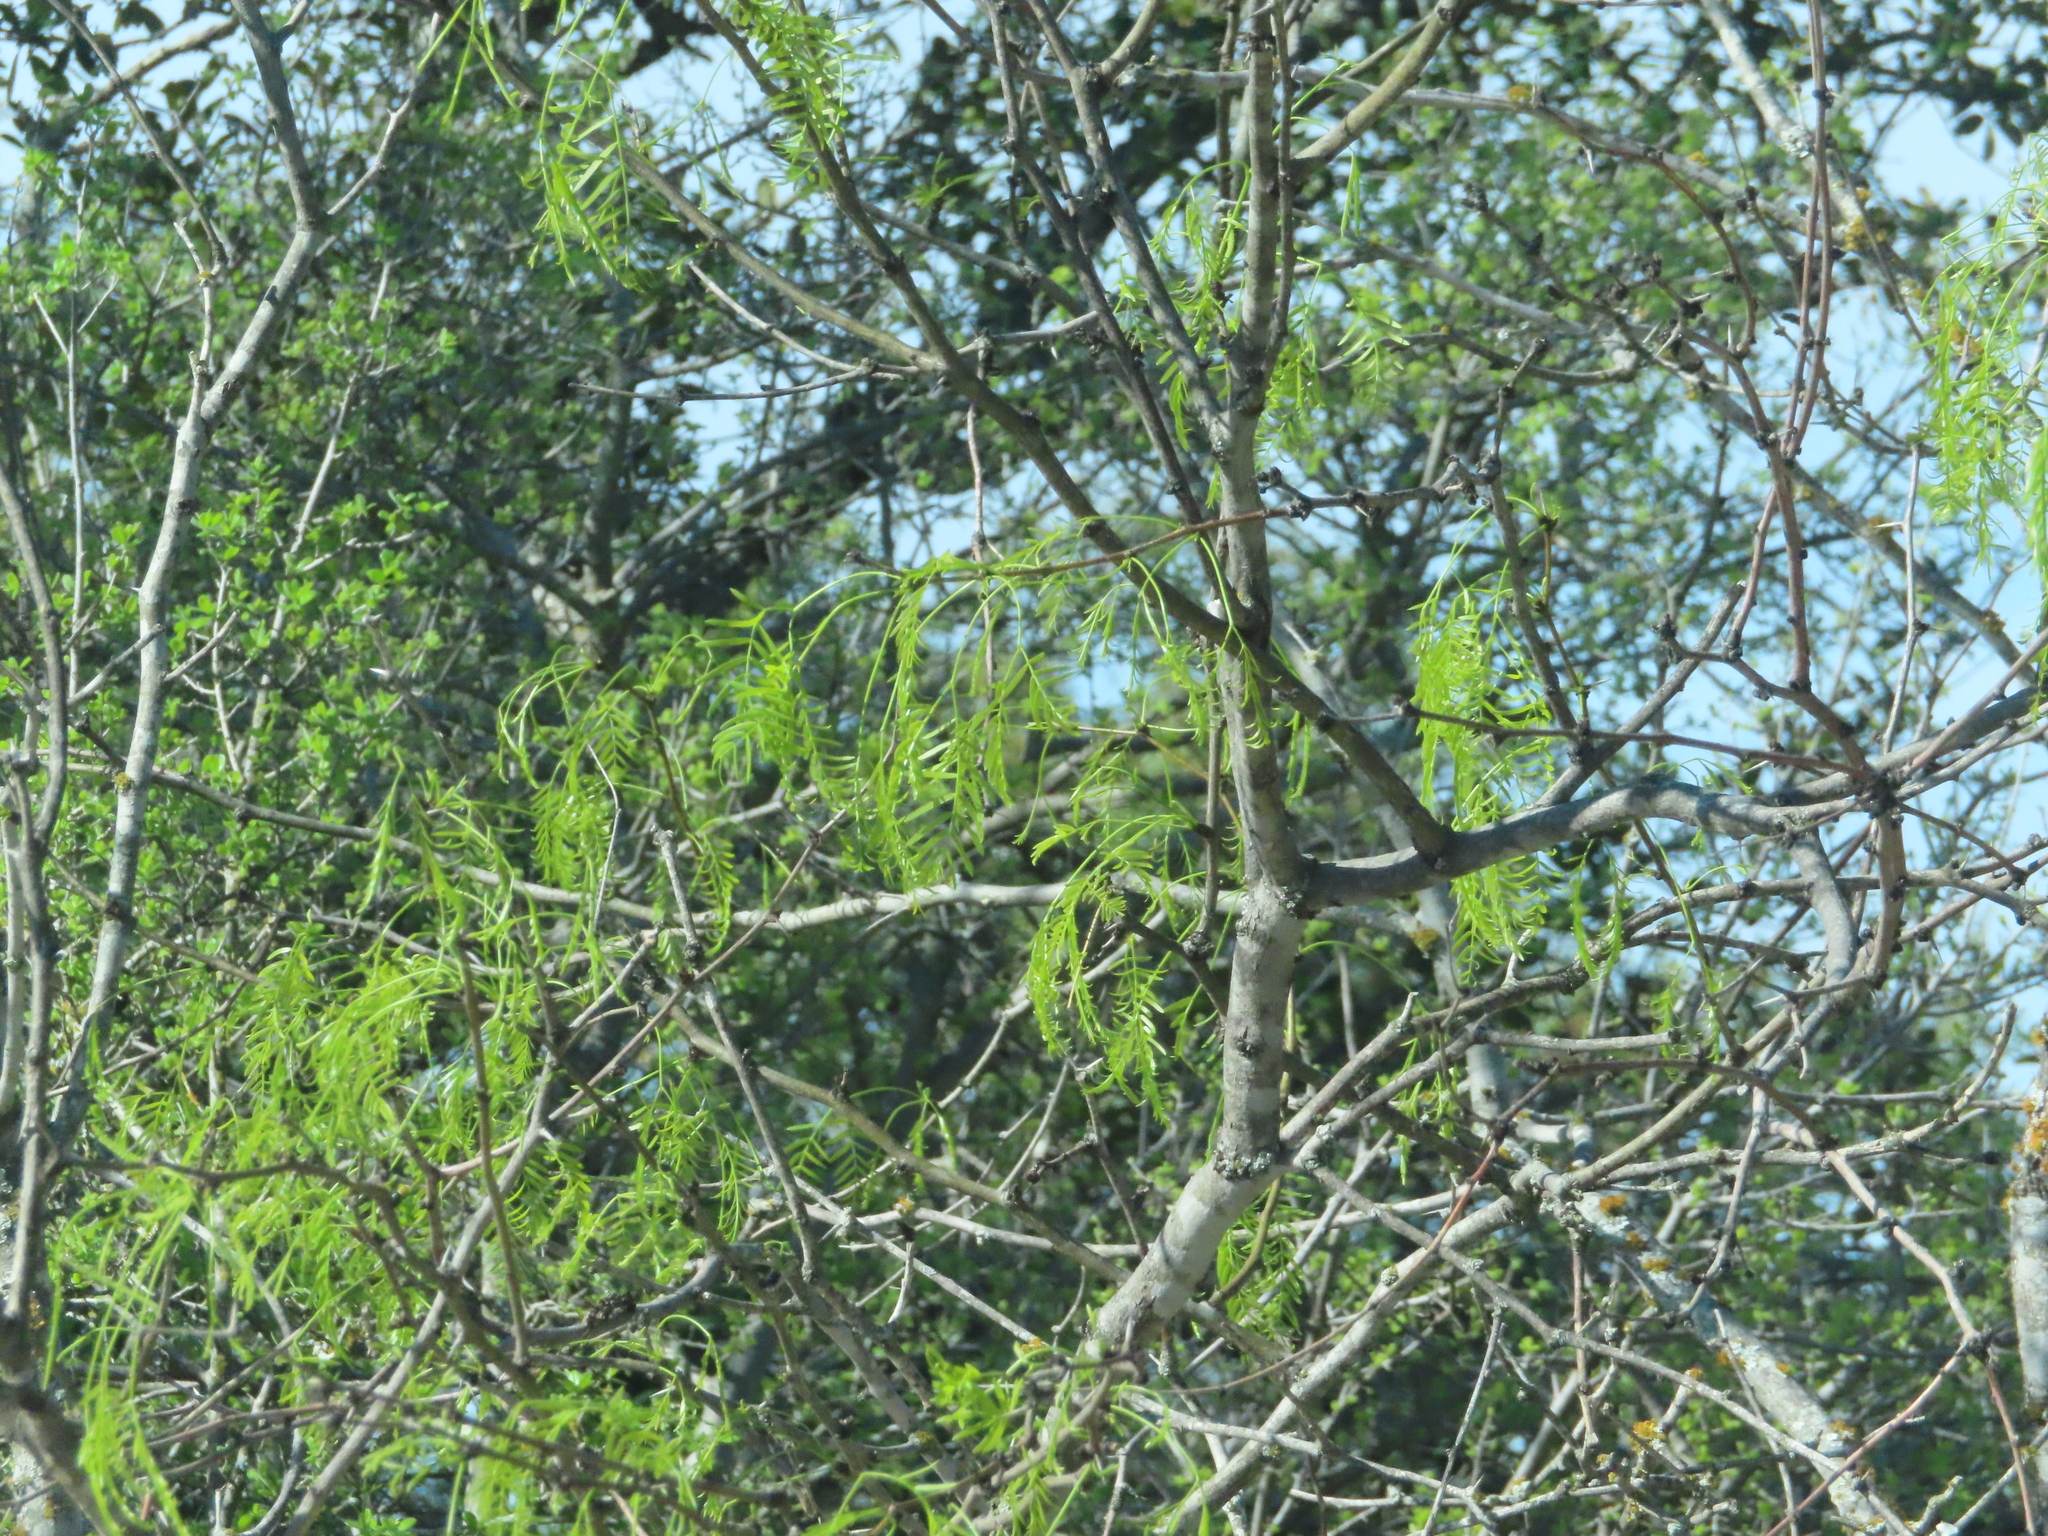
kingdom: Plantae
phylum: Tracheophyta
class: Magnoliopsida
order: Fabales
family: Fabaceae
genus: Prosopis
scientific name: Prosopis glandulosa
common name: Honey mesquite
